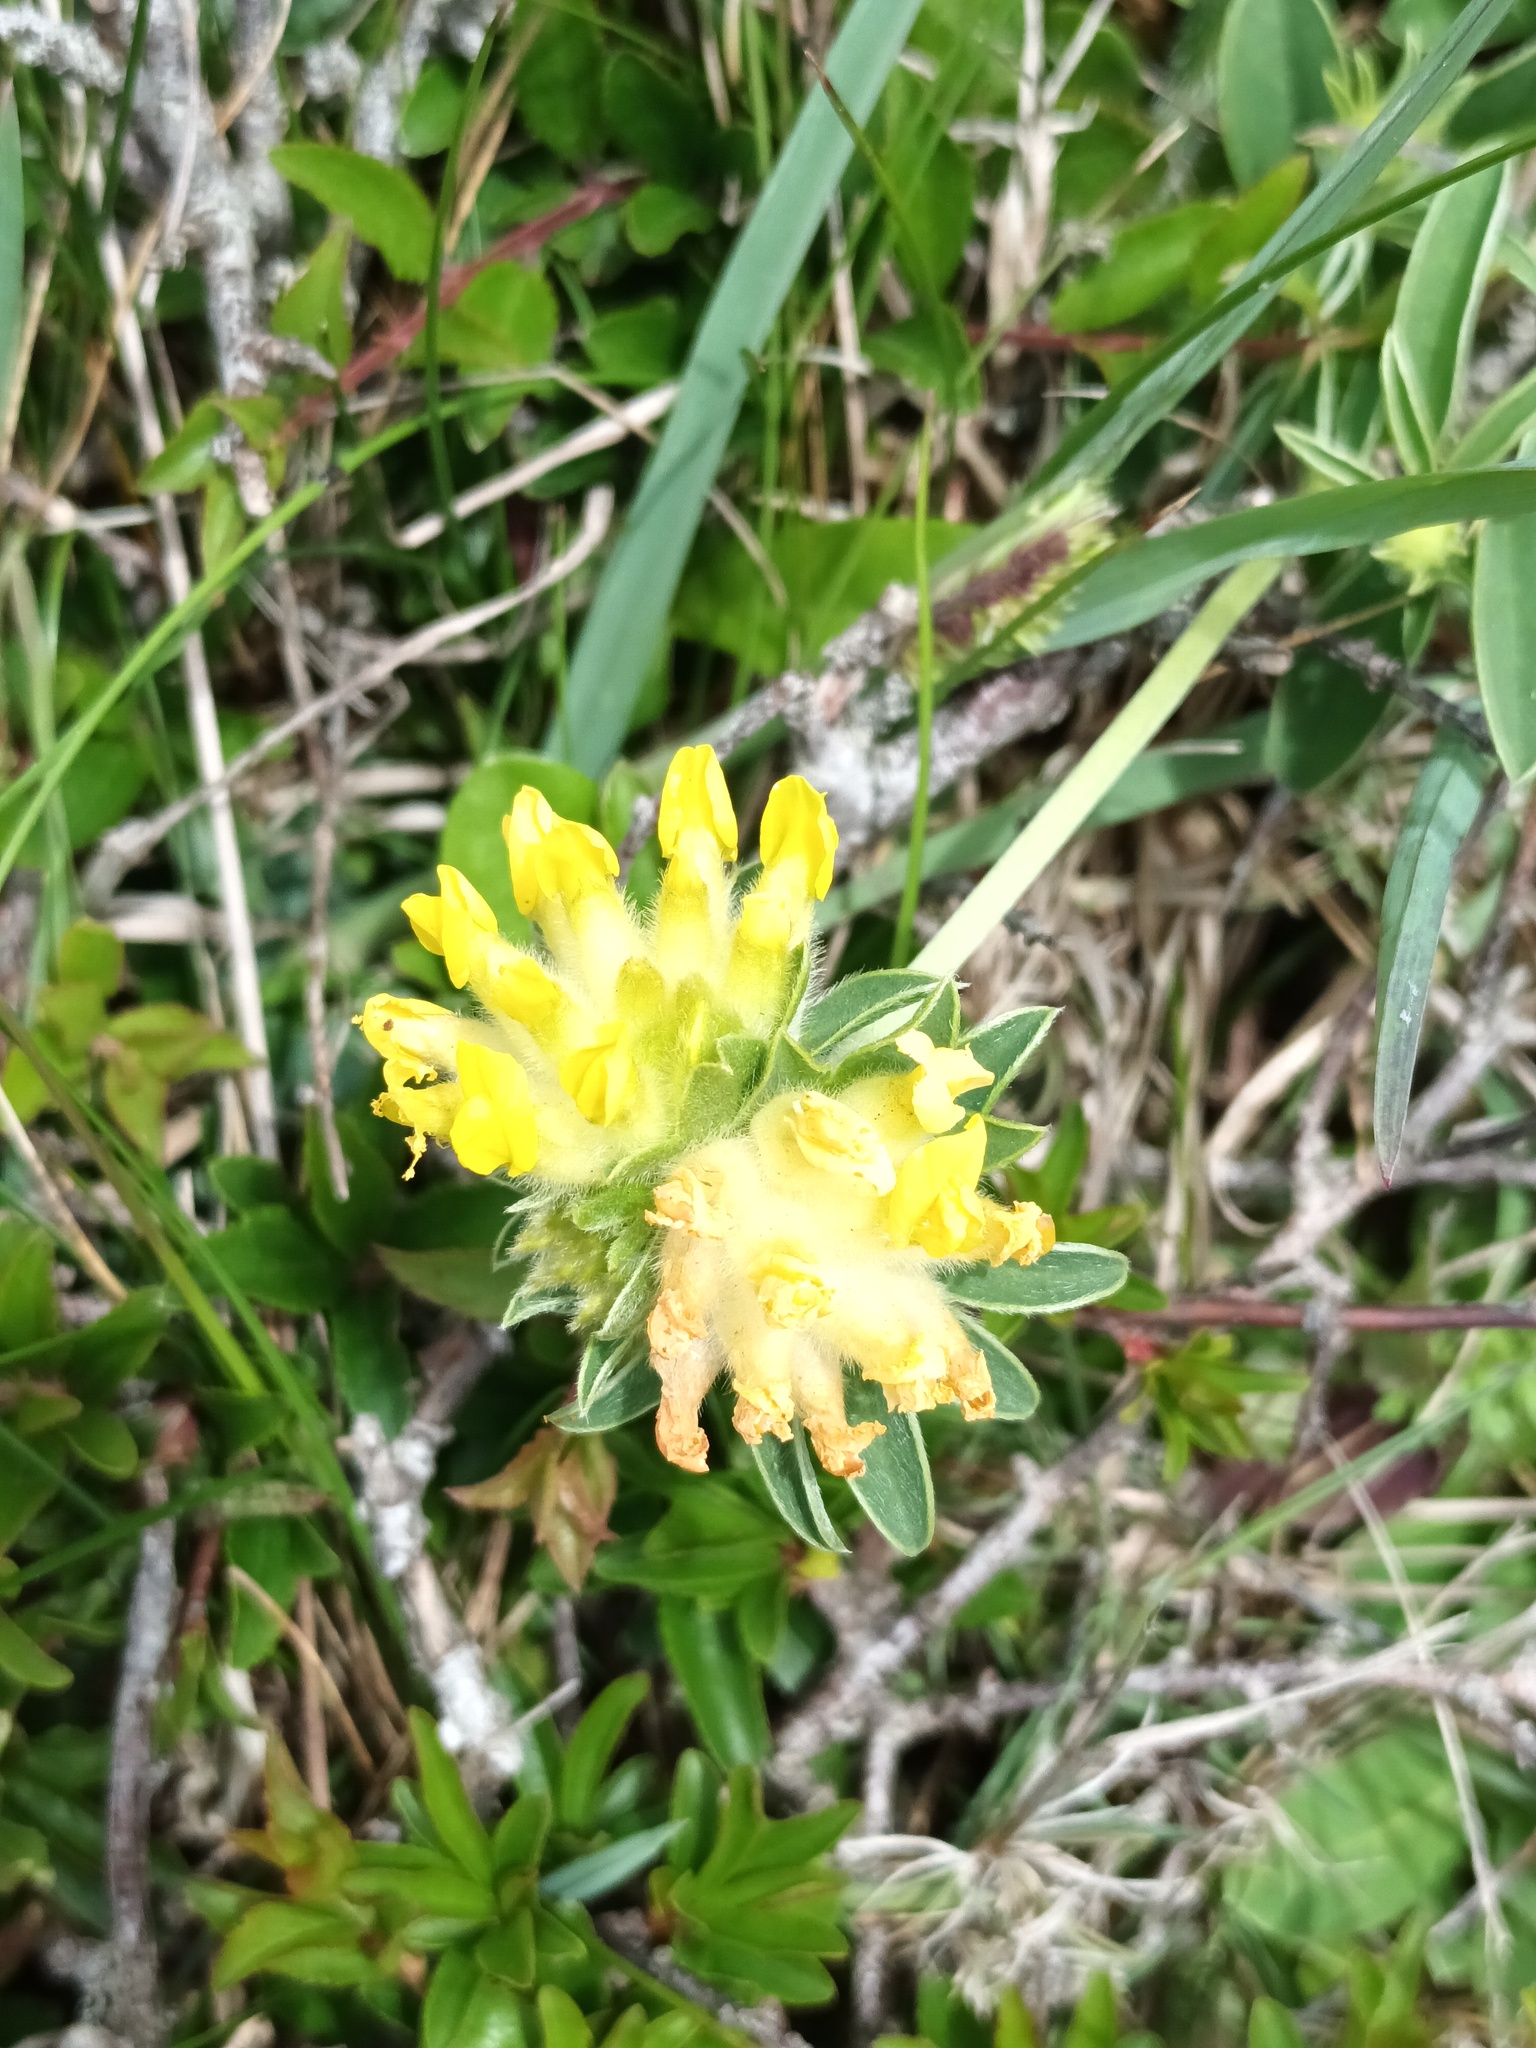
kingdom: Plantae
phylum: Tracheophyta
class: Magnoliopsida
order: Fabales
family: Fabaceae
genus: Anthyllis
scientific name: Anthyllis vulneraria
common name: Kidney vetch
